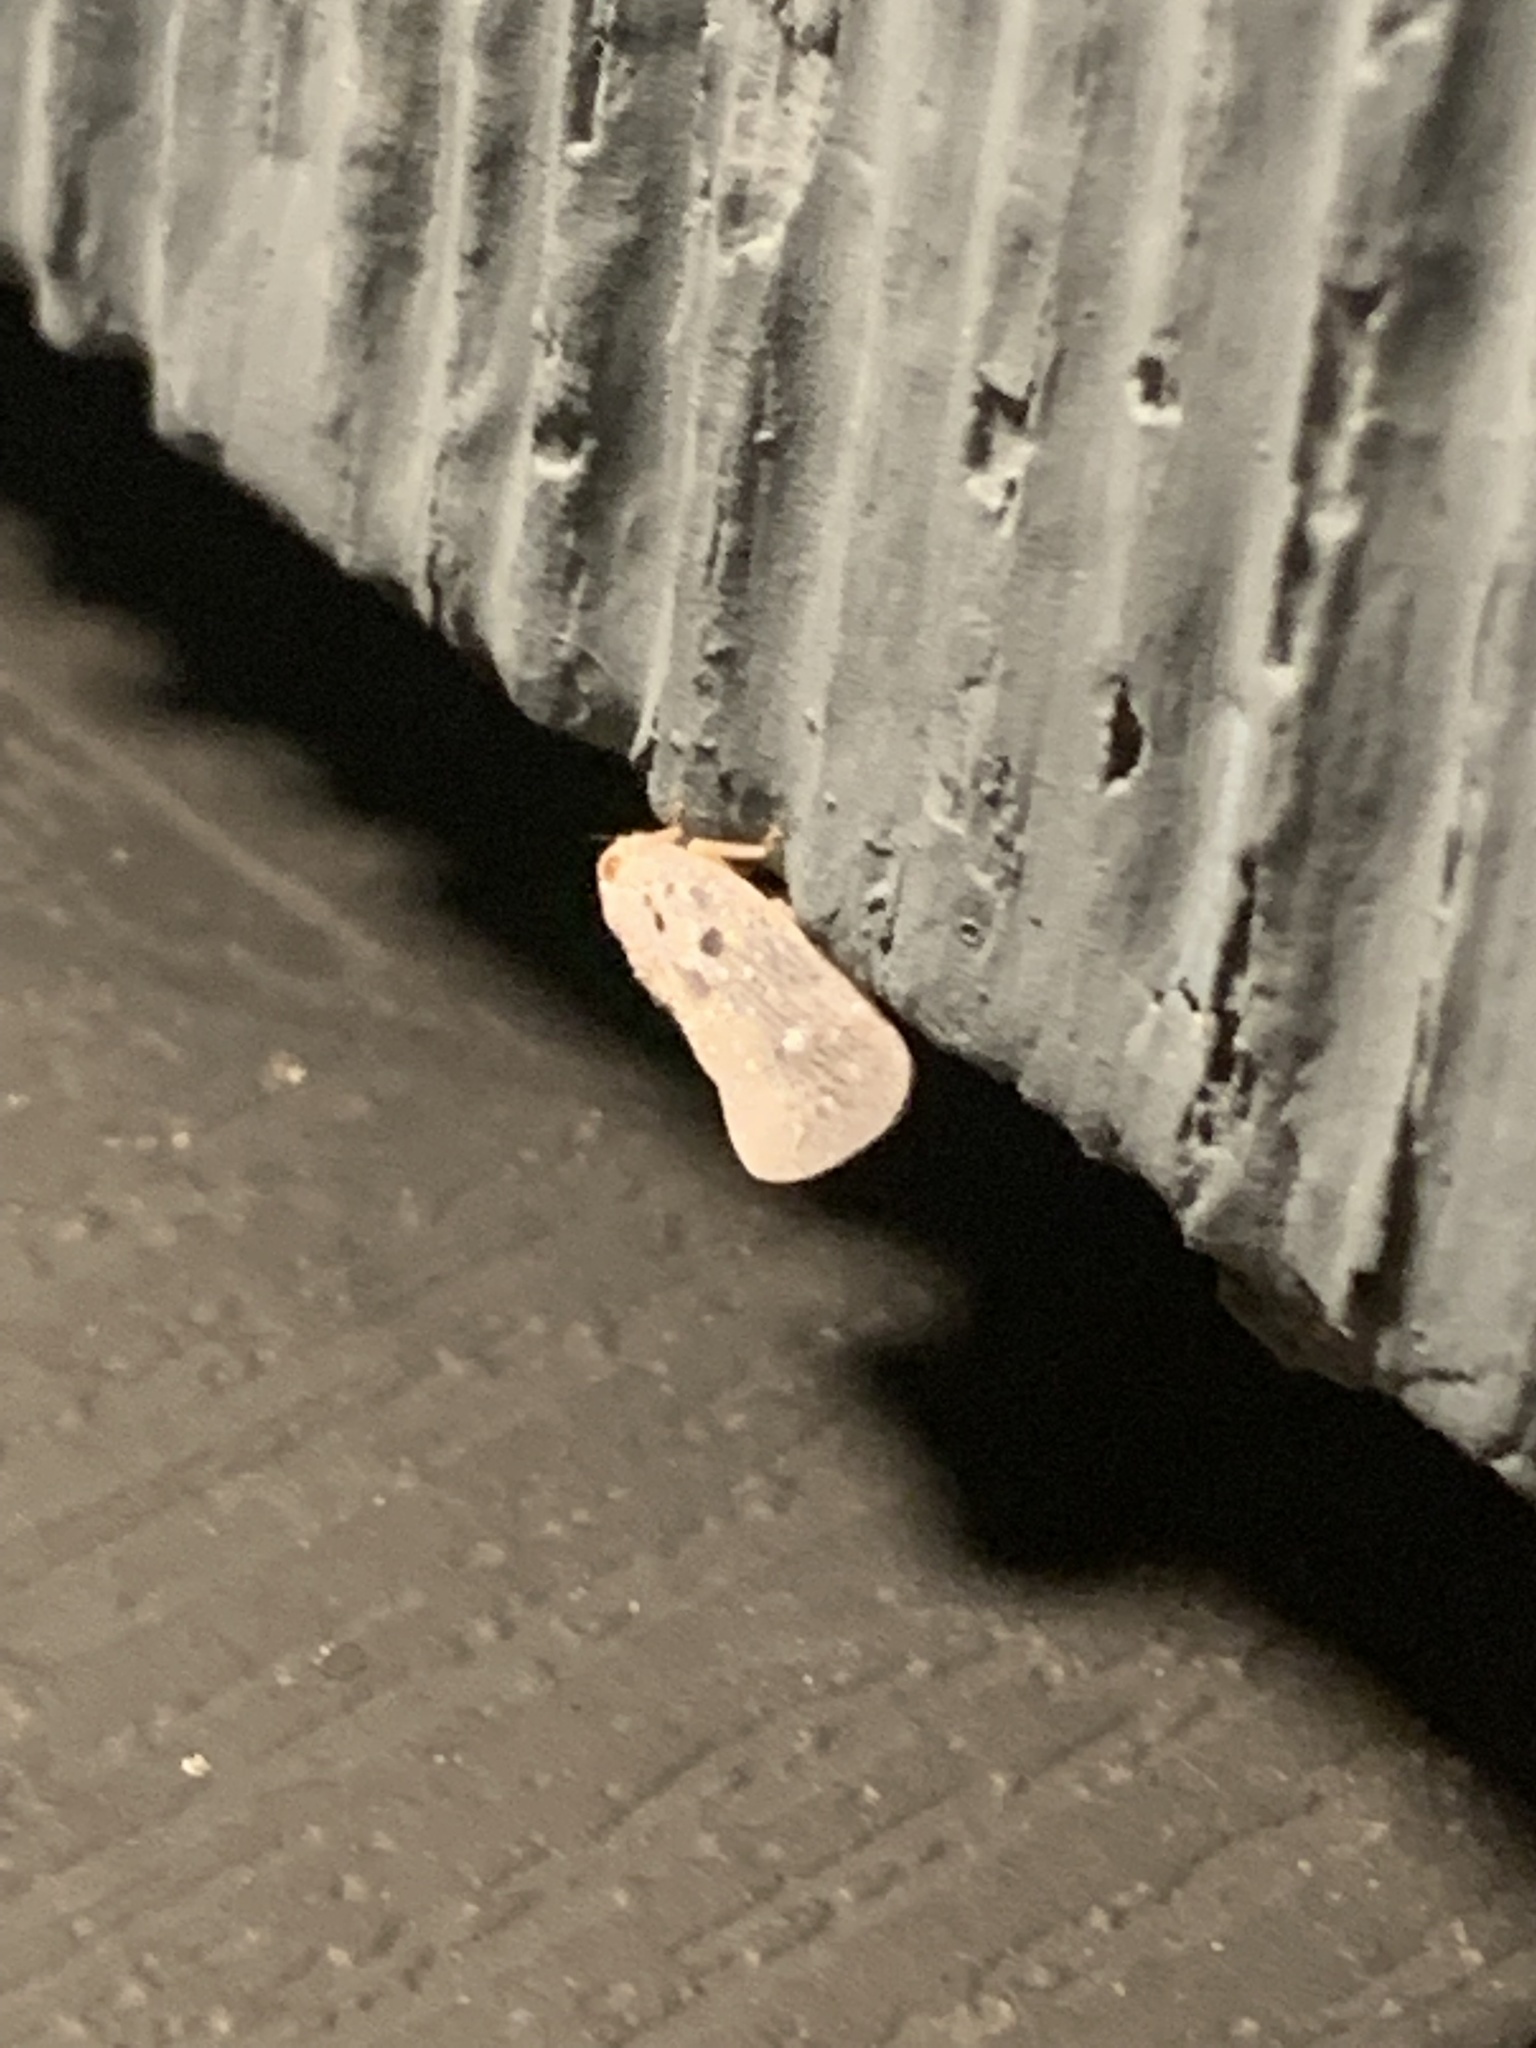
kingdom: Animalia
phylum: Arthropoda
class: Insecta
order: Hemiptera
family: Flatidae
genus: Metcalfa
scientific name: Metcalfa pruinosa
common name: Citrus flatid planthopper
